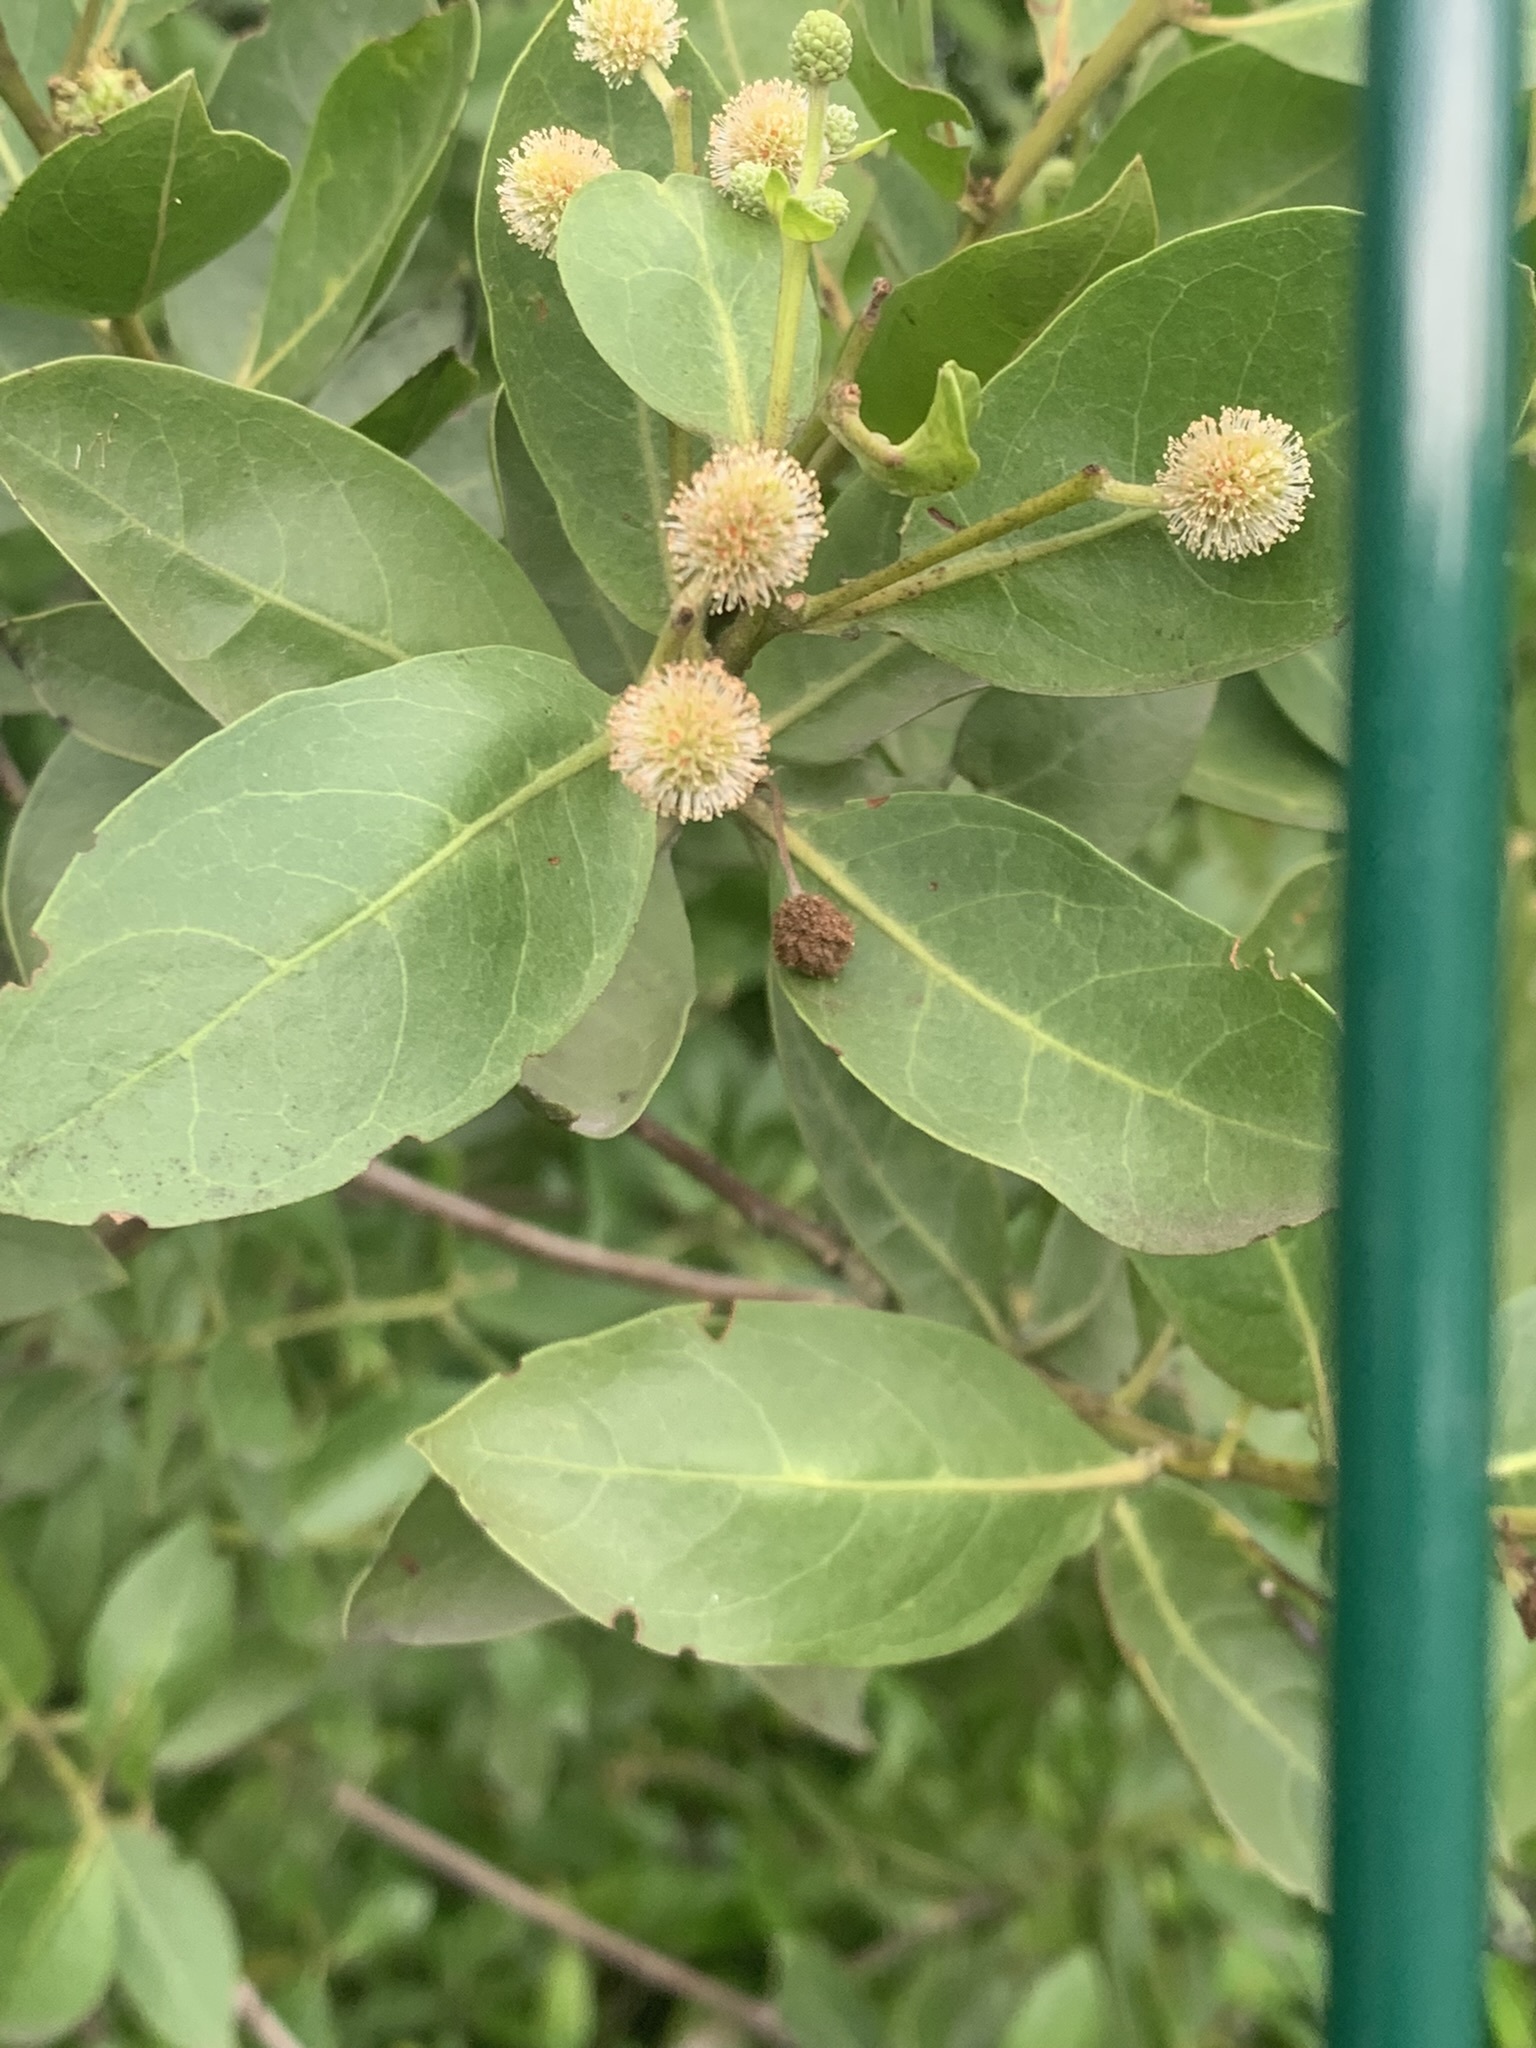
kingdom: Plantae
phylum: Tracheophyta
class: Magnoliopsida
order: Myrtales
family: Combretaceae
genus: Conocarpus
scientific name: Conocarpus erectus
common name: Button mangrove
